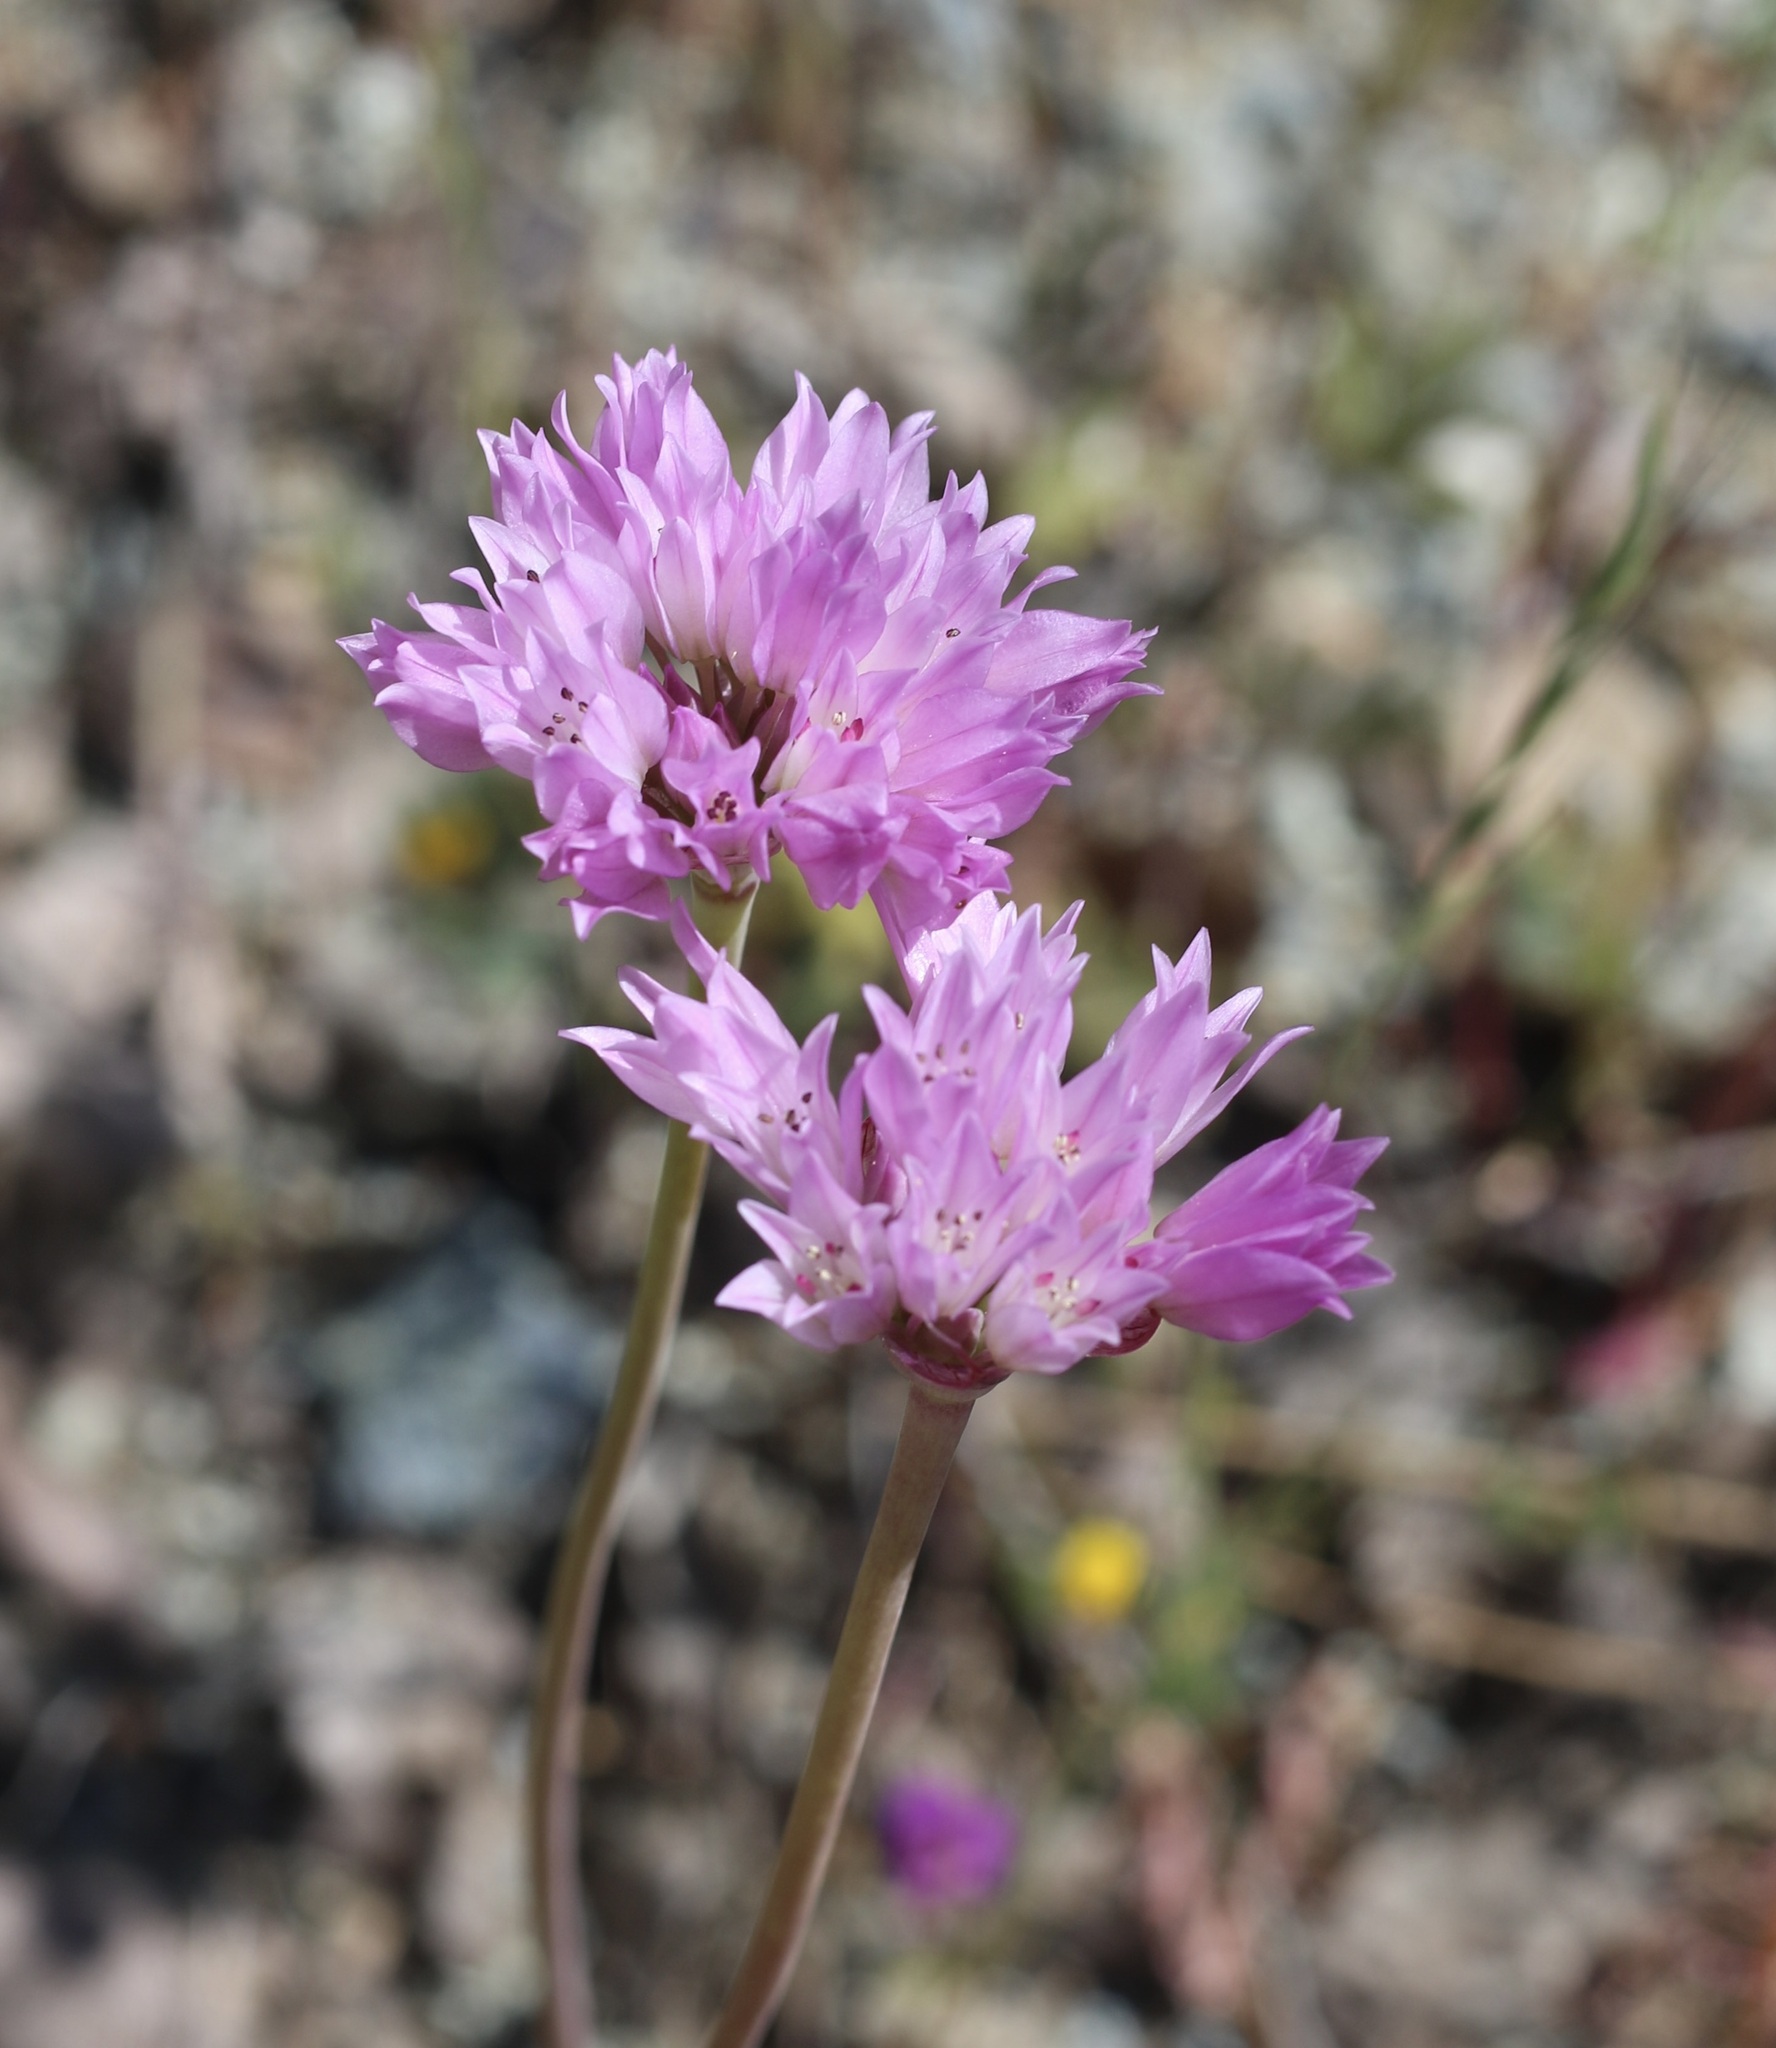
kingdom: Plantae
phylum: Tracheophyta
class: Liliopsida
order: Asparagales
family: Amaryllidaceae
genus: Allium
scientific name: Allium serra
